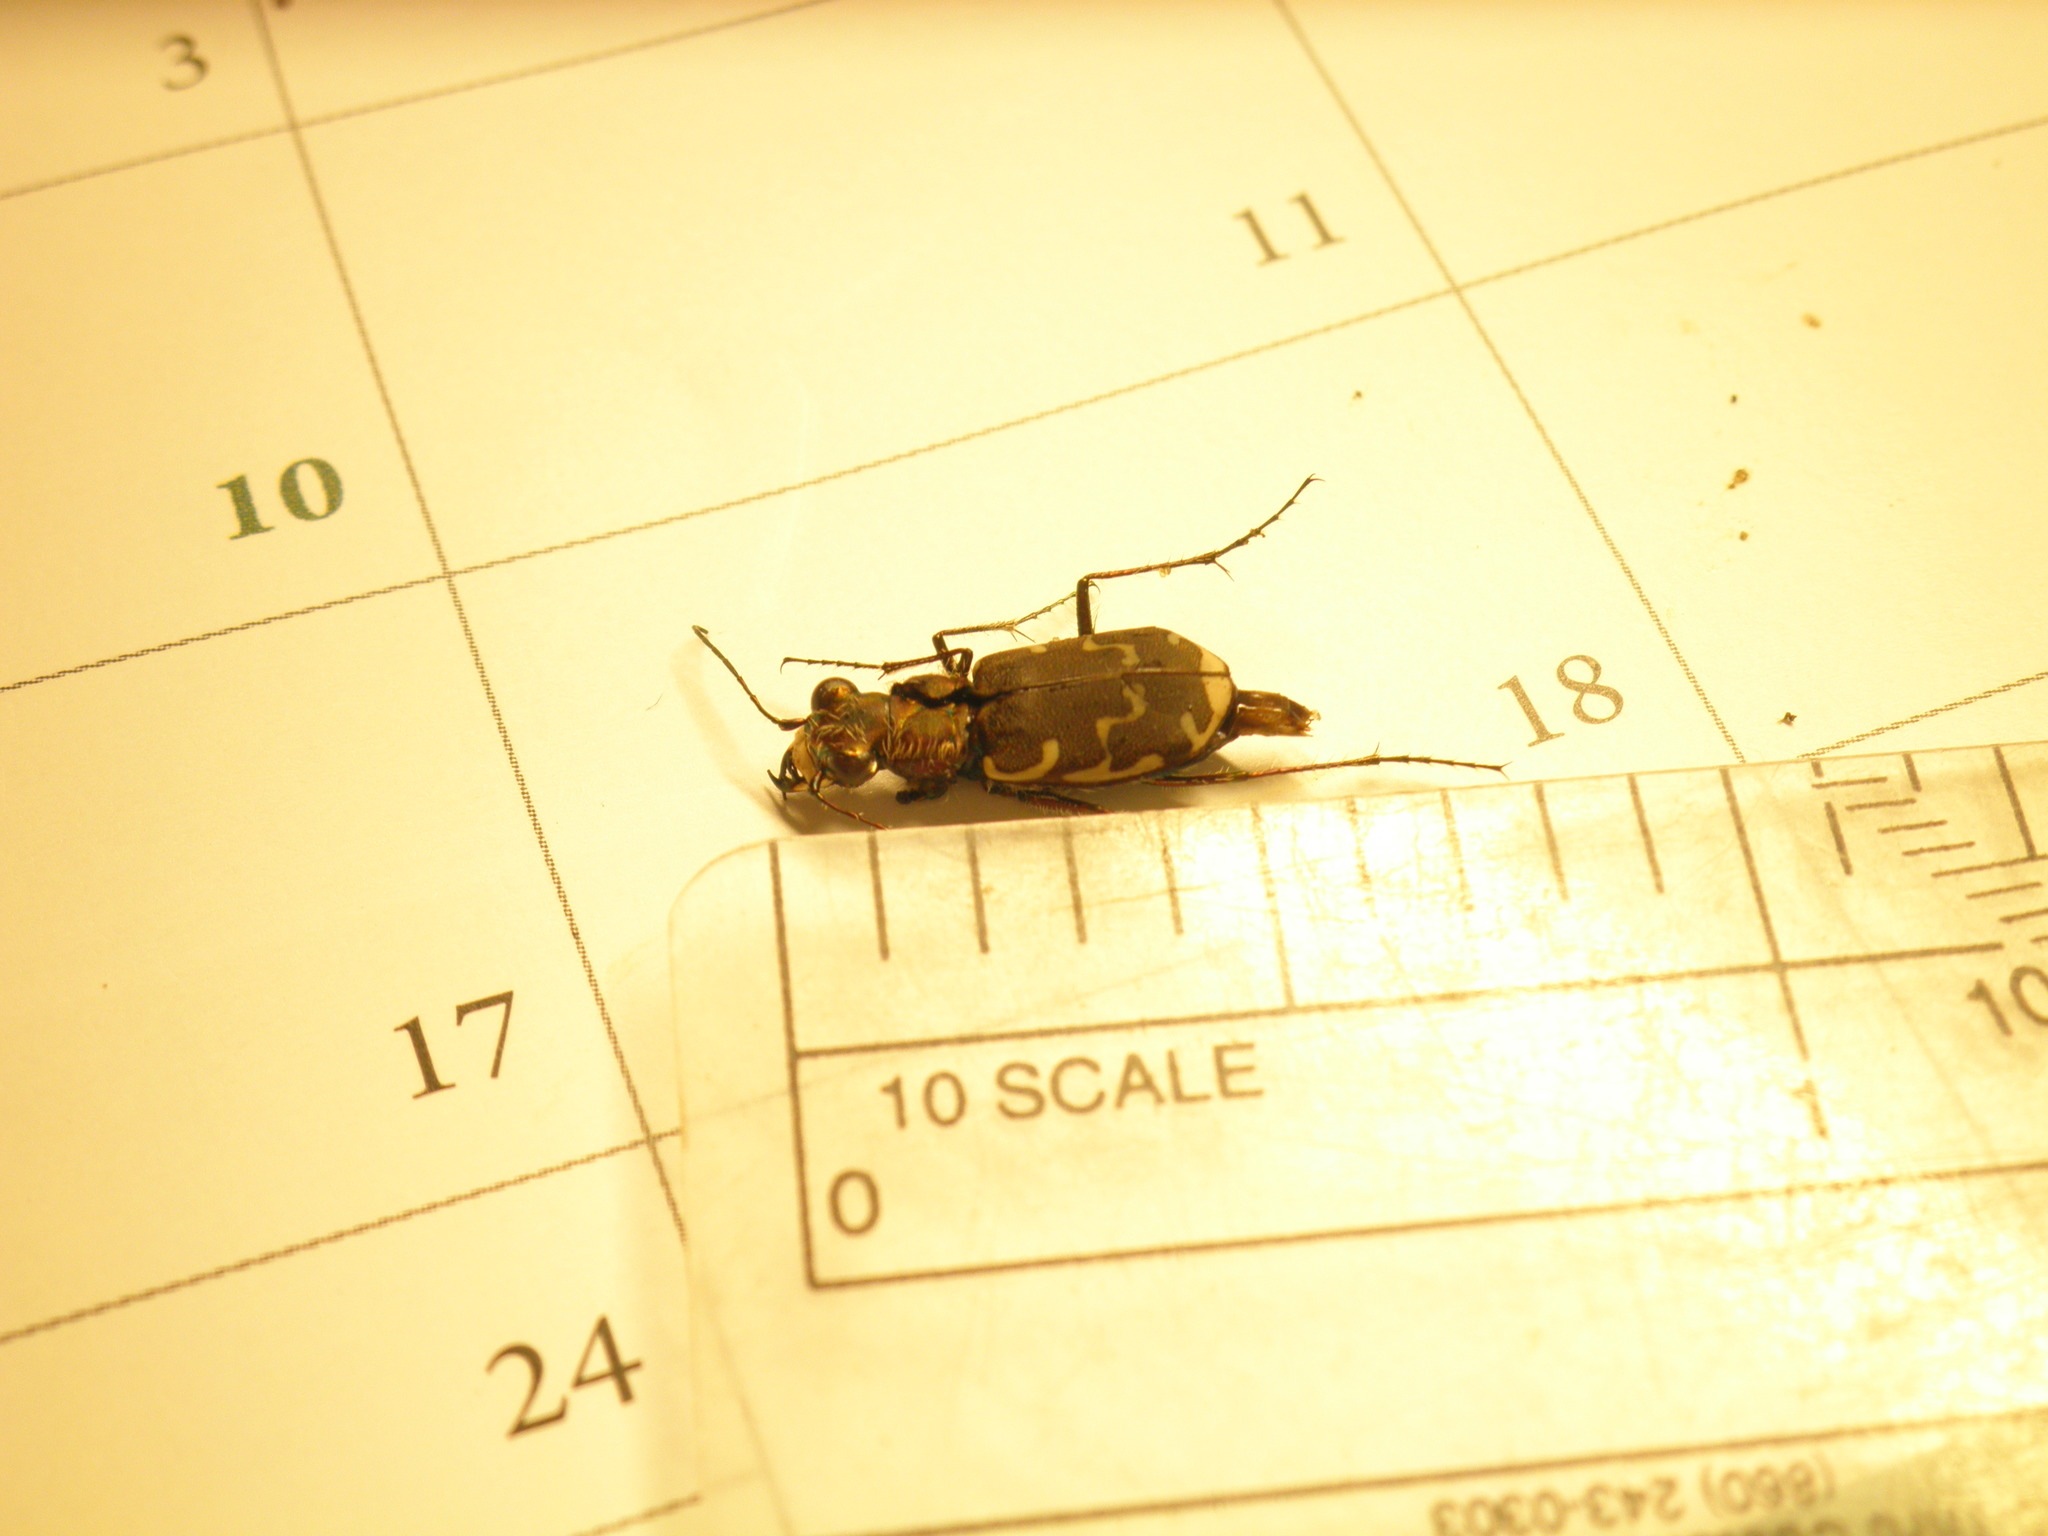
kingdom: Animalia
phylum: Arthropoda
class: Insecta
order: Coleoptera
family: Carabidae
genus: Cicindela
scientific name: Cicindela repanda
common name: Bronzed tiger beetle
